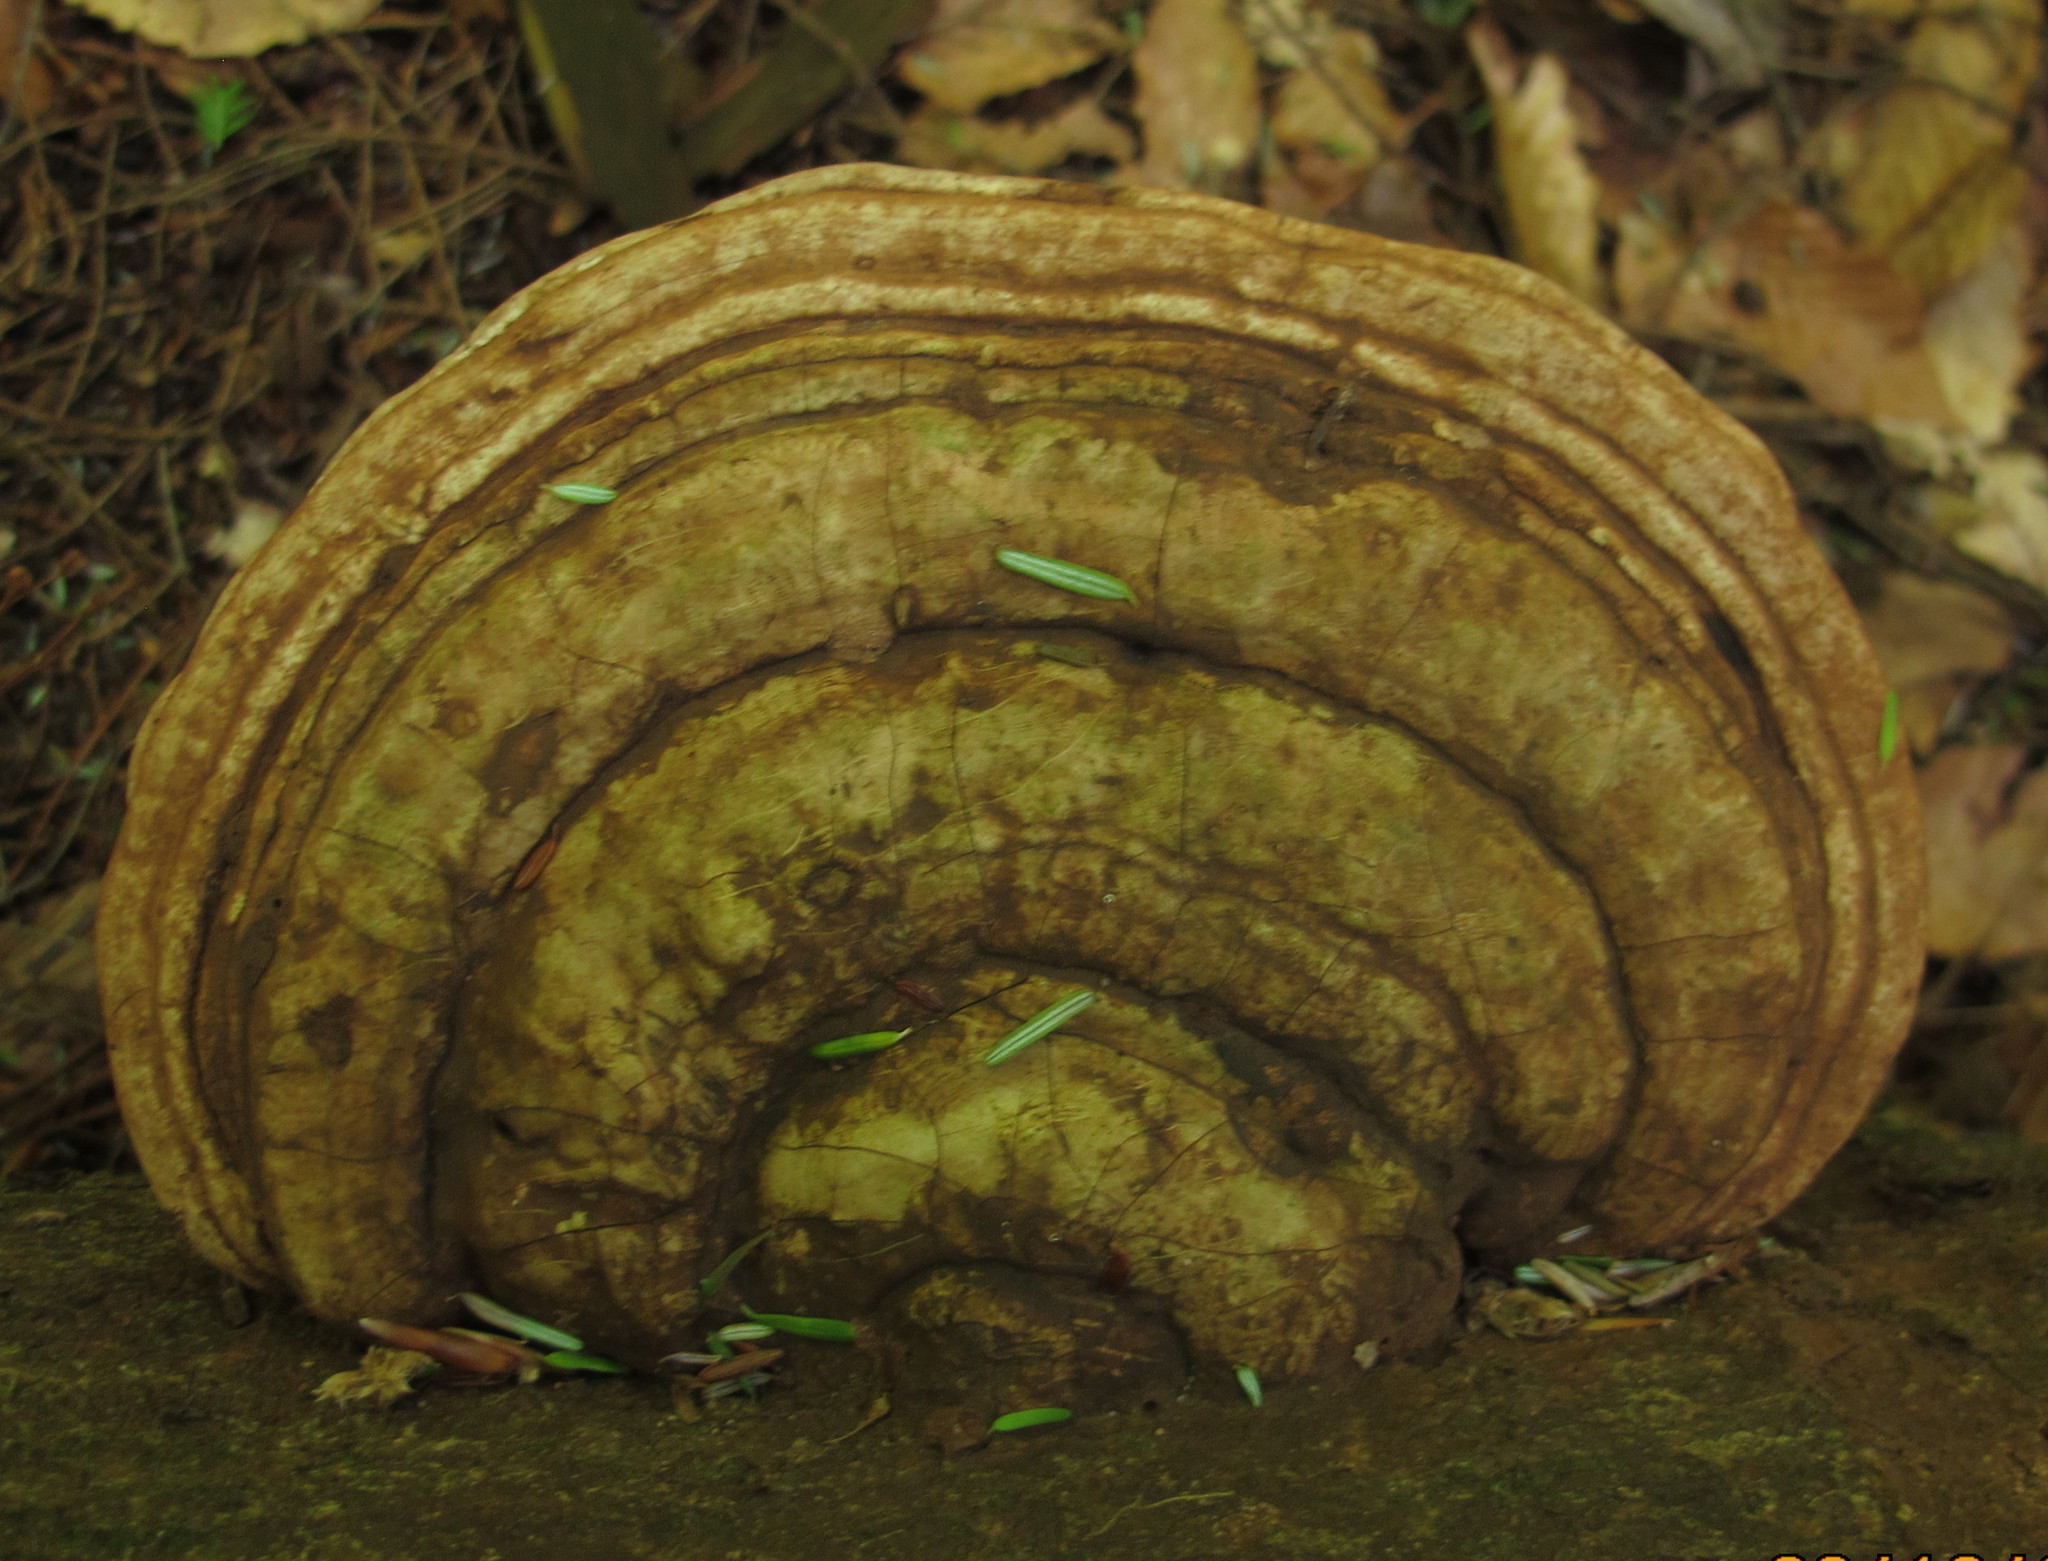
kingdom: Fungi
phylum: Basidiomycota
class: Agaricomycetes
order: Polyporales
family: Polyporaceae
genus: Ganoderma
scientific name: Ganoderma applanatum
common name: Artist's bracket
